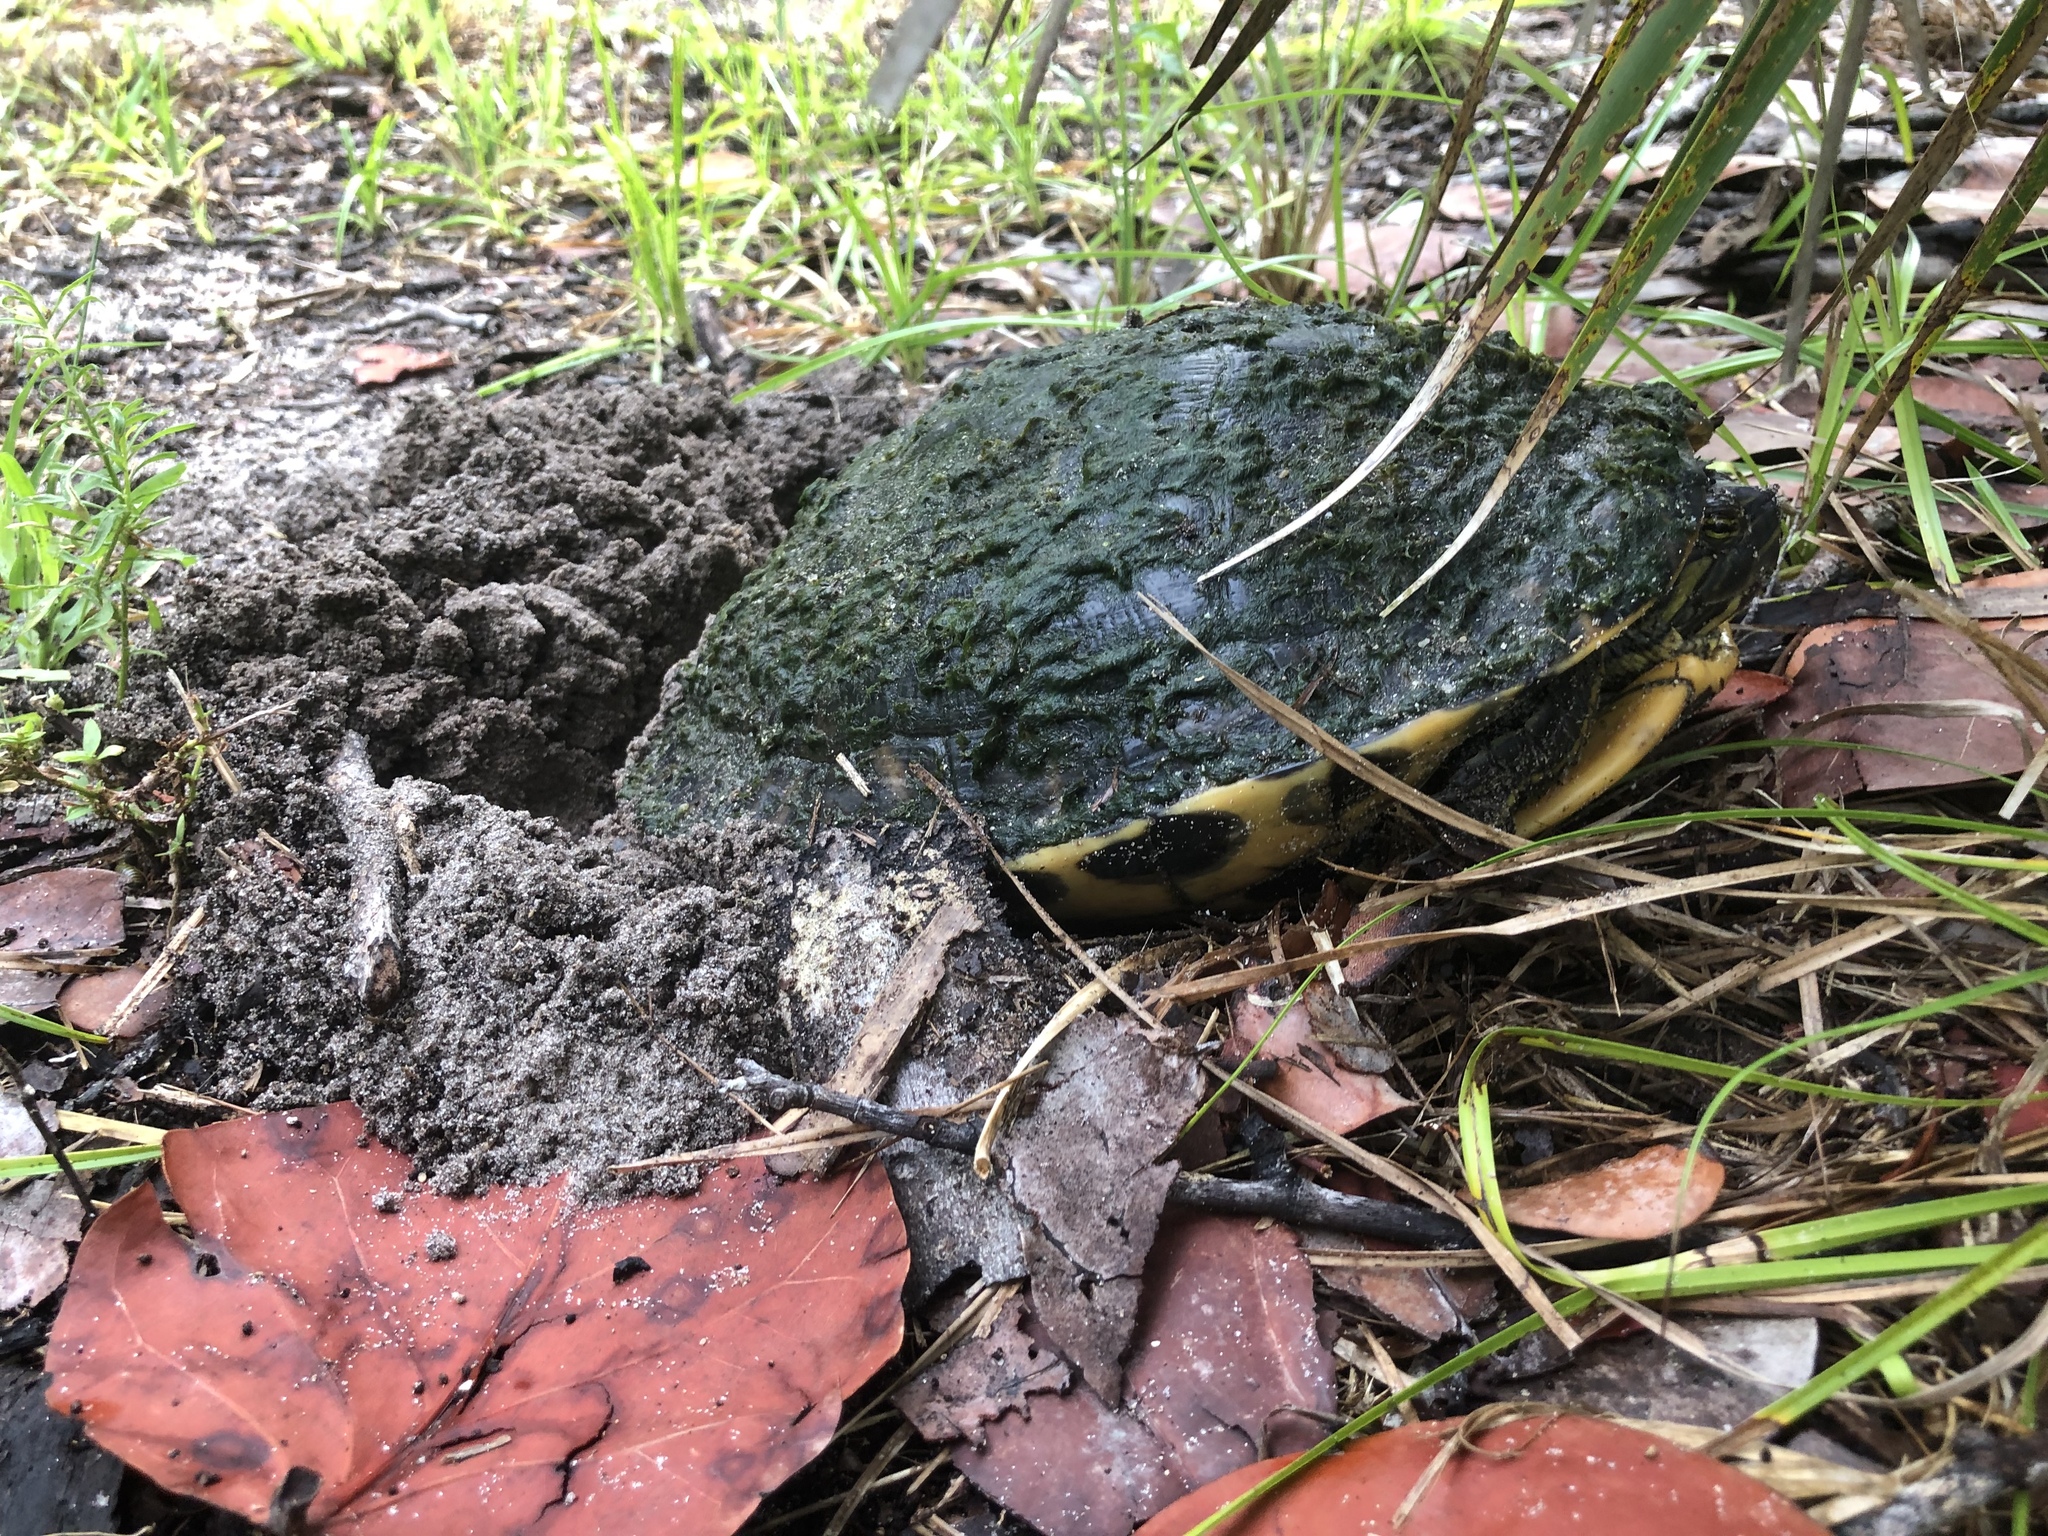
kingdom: Animalia
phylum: Chordata
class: Testudines
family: Emydidae
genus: Pseudemys
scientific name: Pseudemys peninsularis
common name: Peninsula cooter
